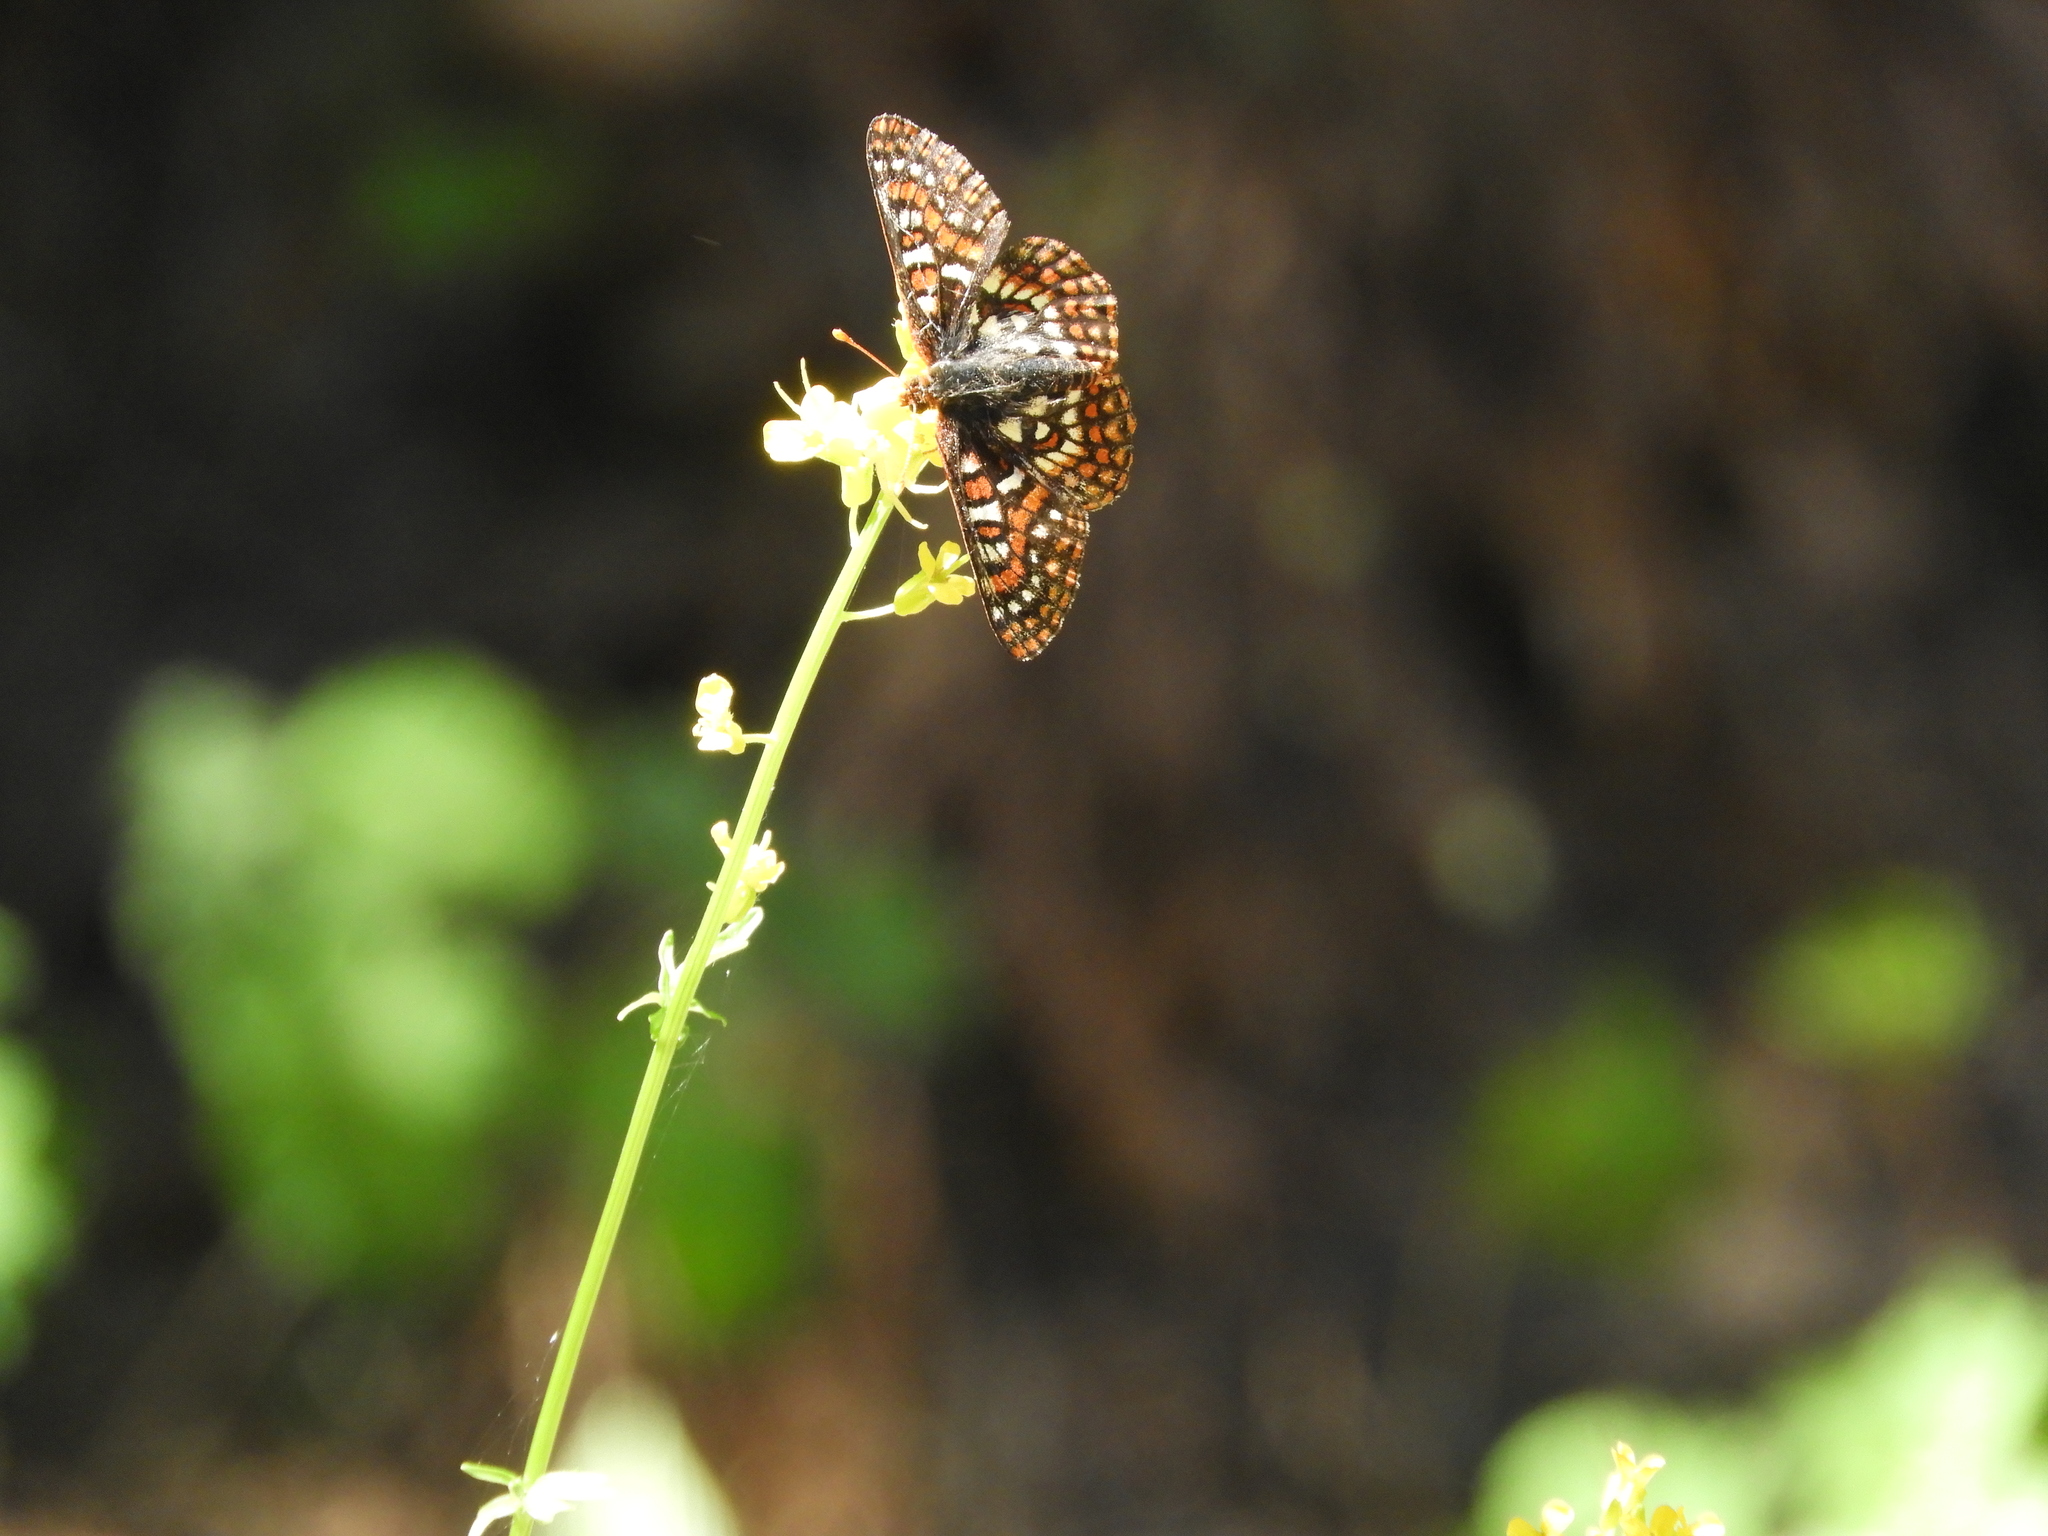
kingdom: Animalia
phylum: Arthropoda
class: Insecta
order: Lepidoptera
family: Nymphalidae
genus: Occidryas
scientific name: Occidryas editha
